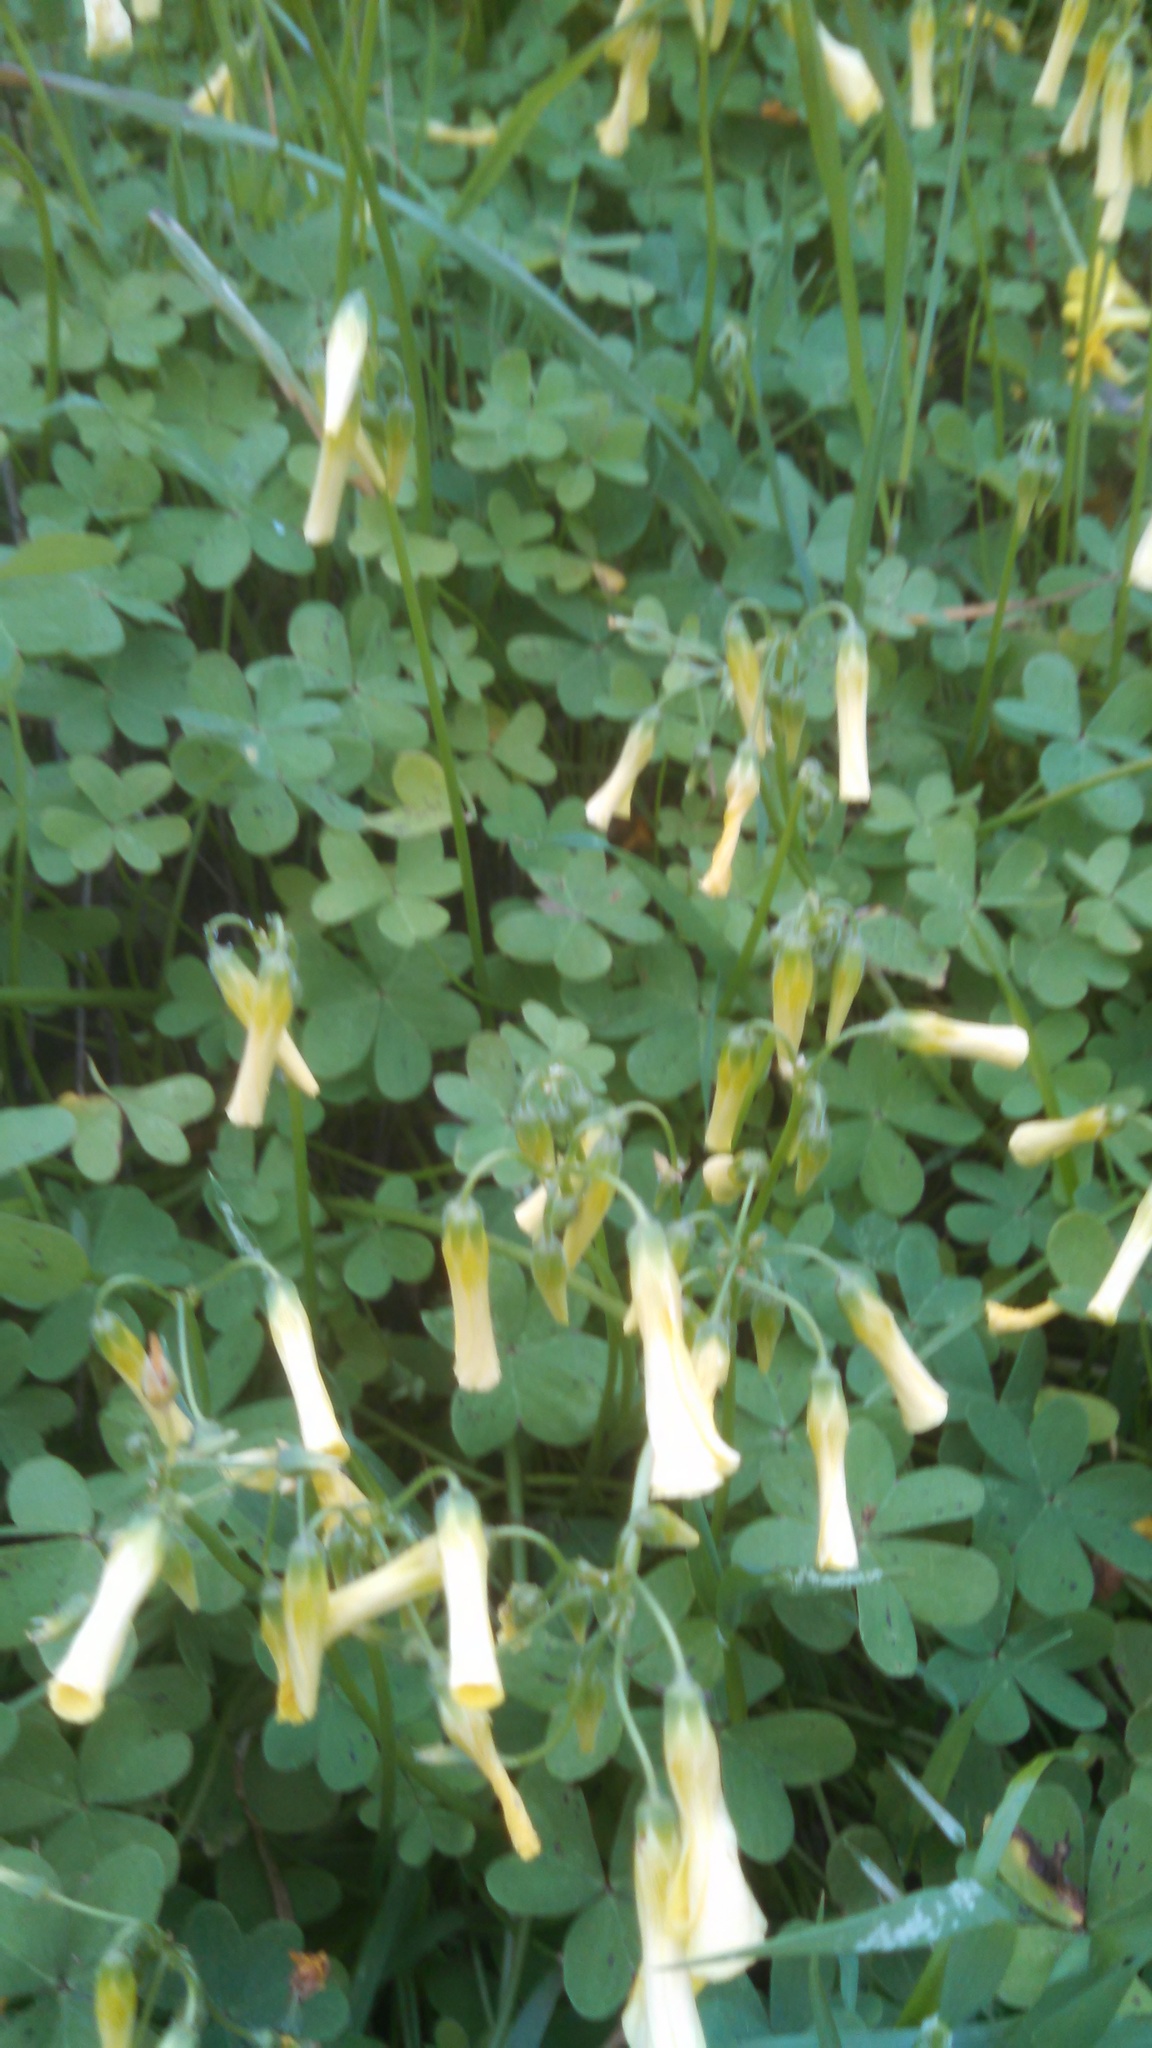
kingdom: Plantae
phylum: Tracheophyta
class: Magnoliopsida
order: Oxalidales
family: Oxalidaceae
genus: Oxalis
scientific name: Oxalis pes-caprae
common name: Bermuda-buttercup
